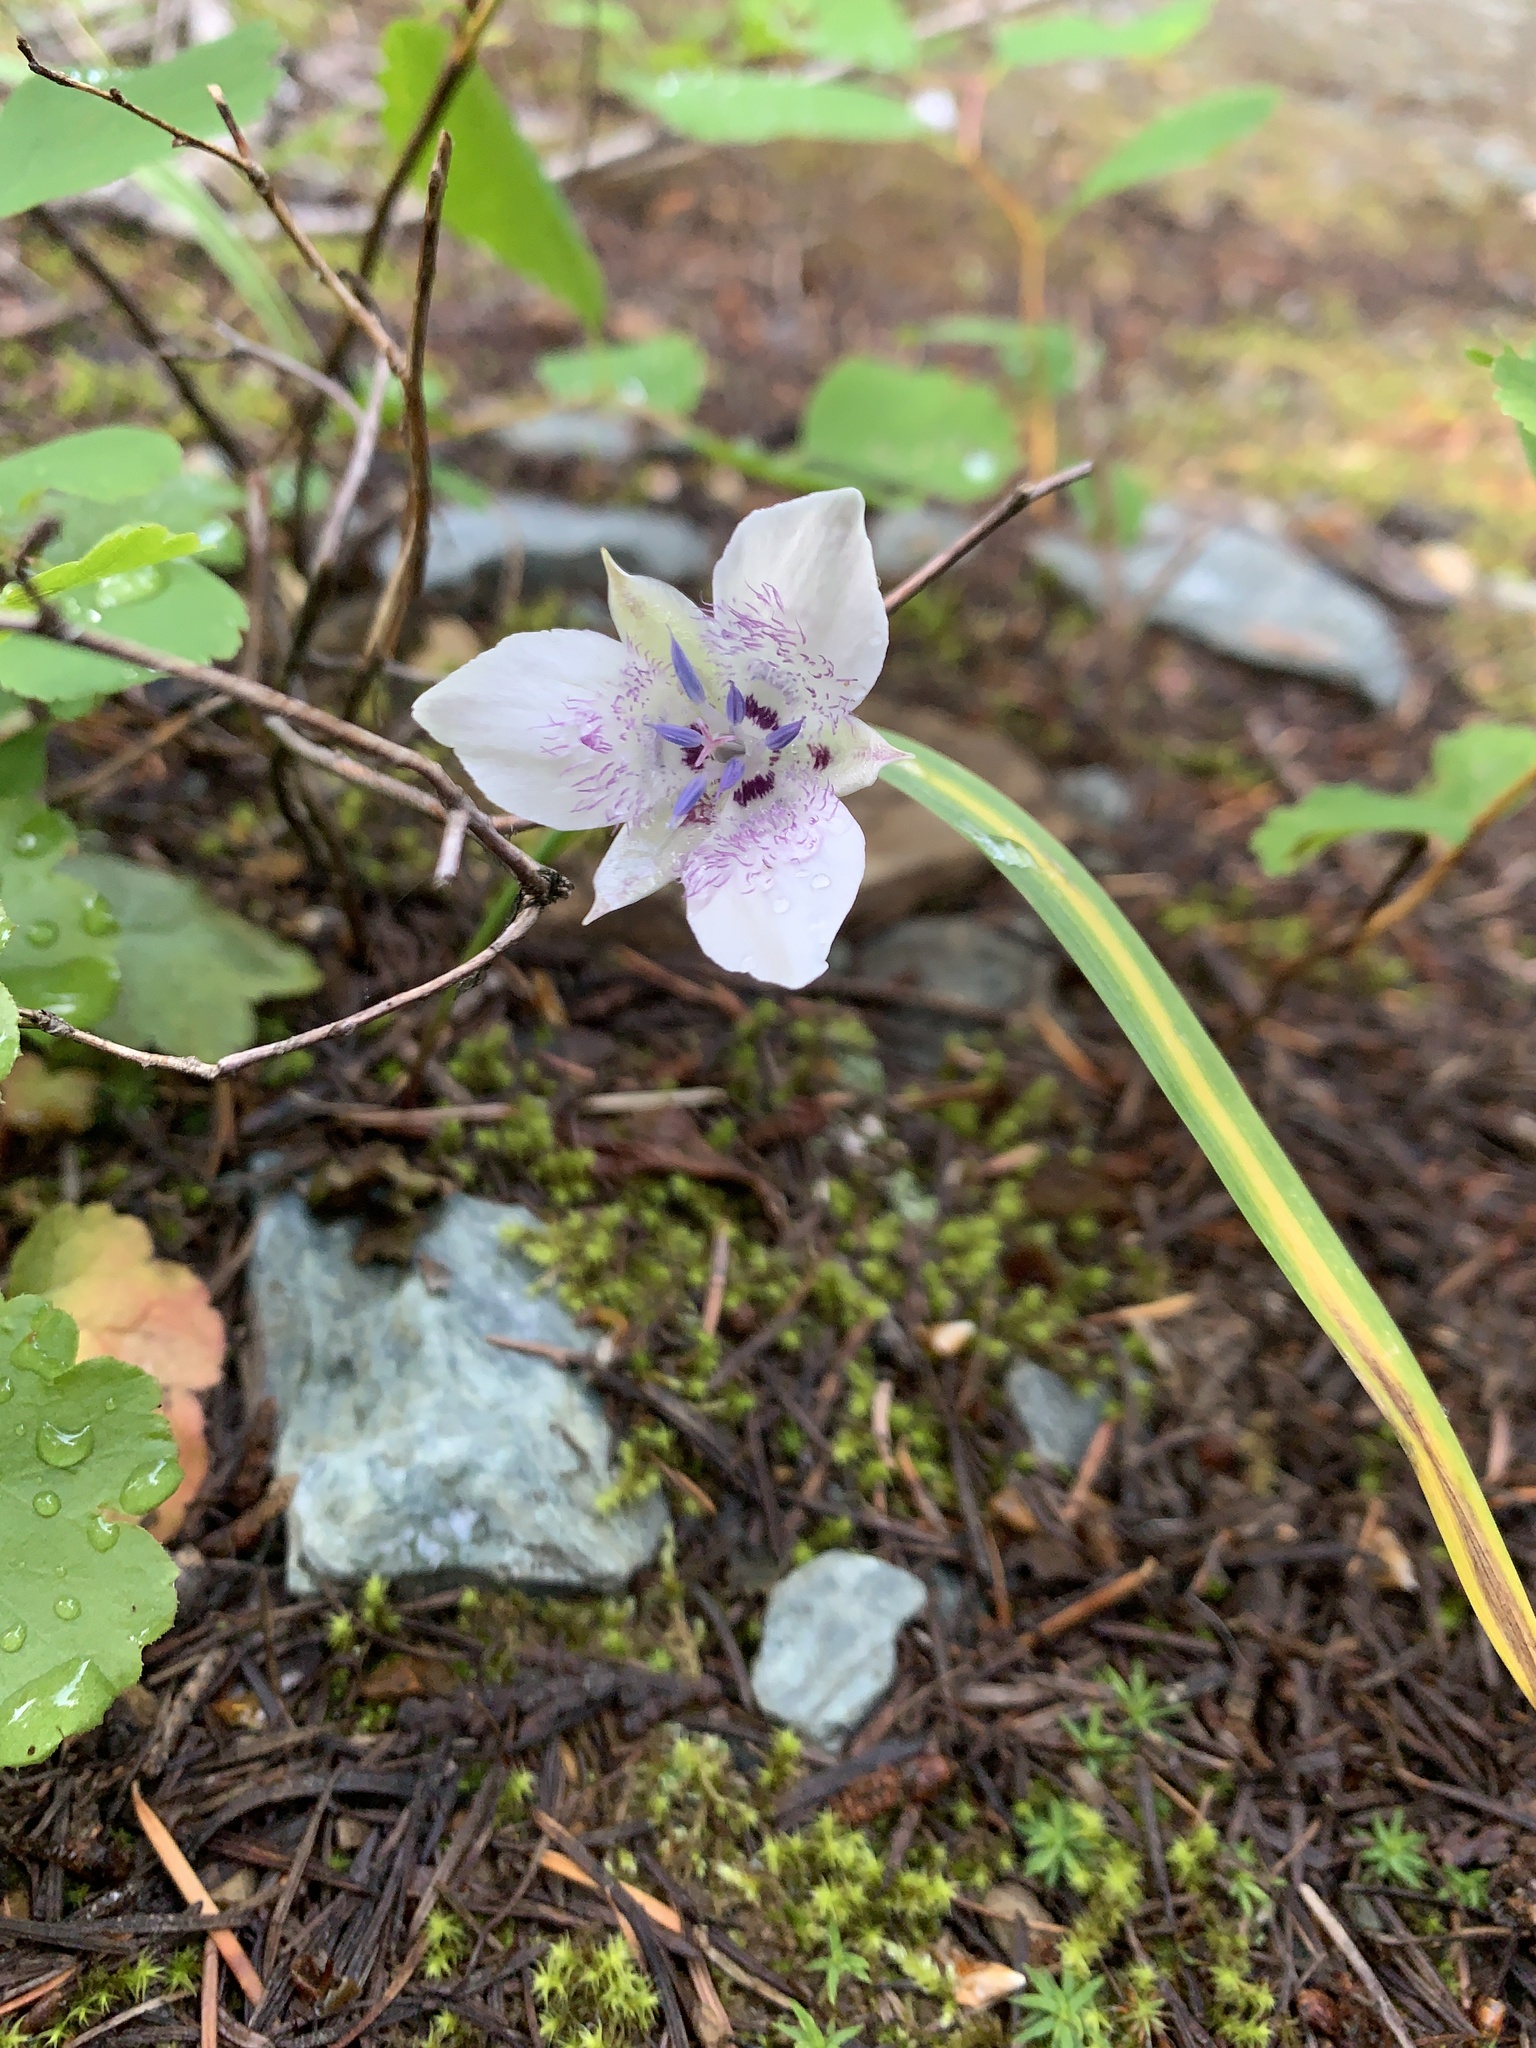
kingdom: Plantae
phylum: Tracheophyta
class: Liliopsida
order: Liliales
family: Liliaceae
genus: Calochortus
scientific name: Calochortus elegans
